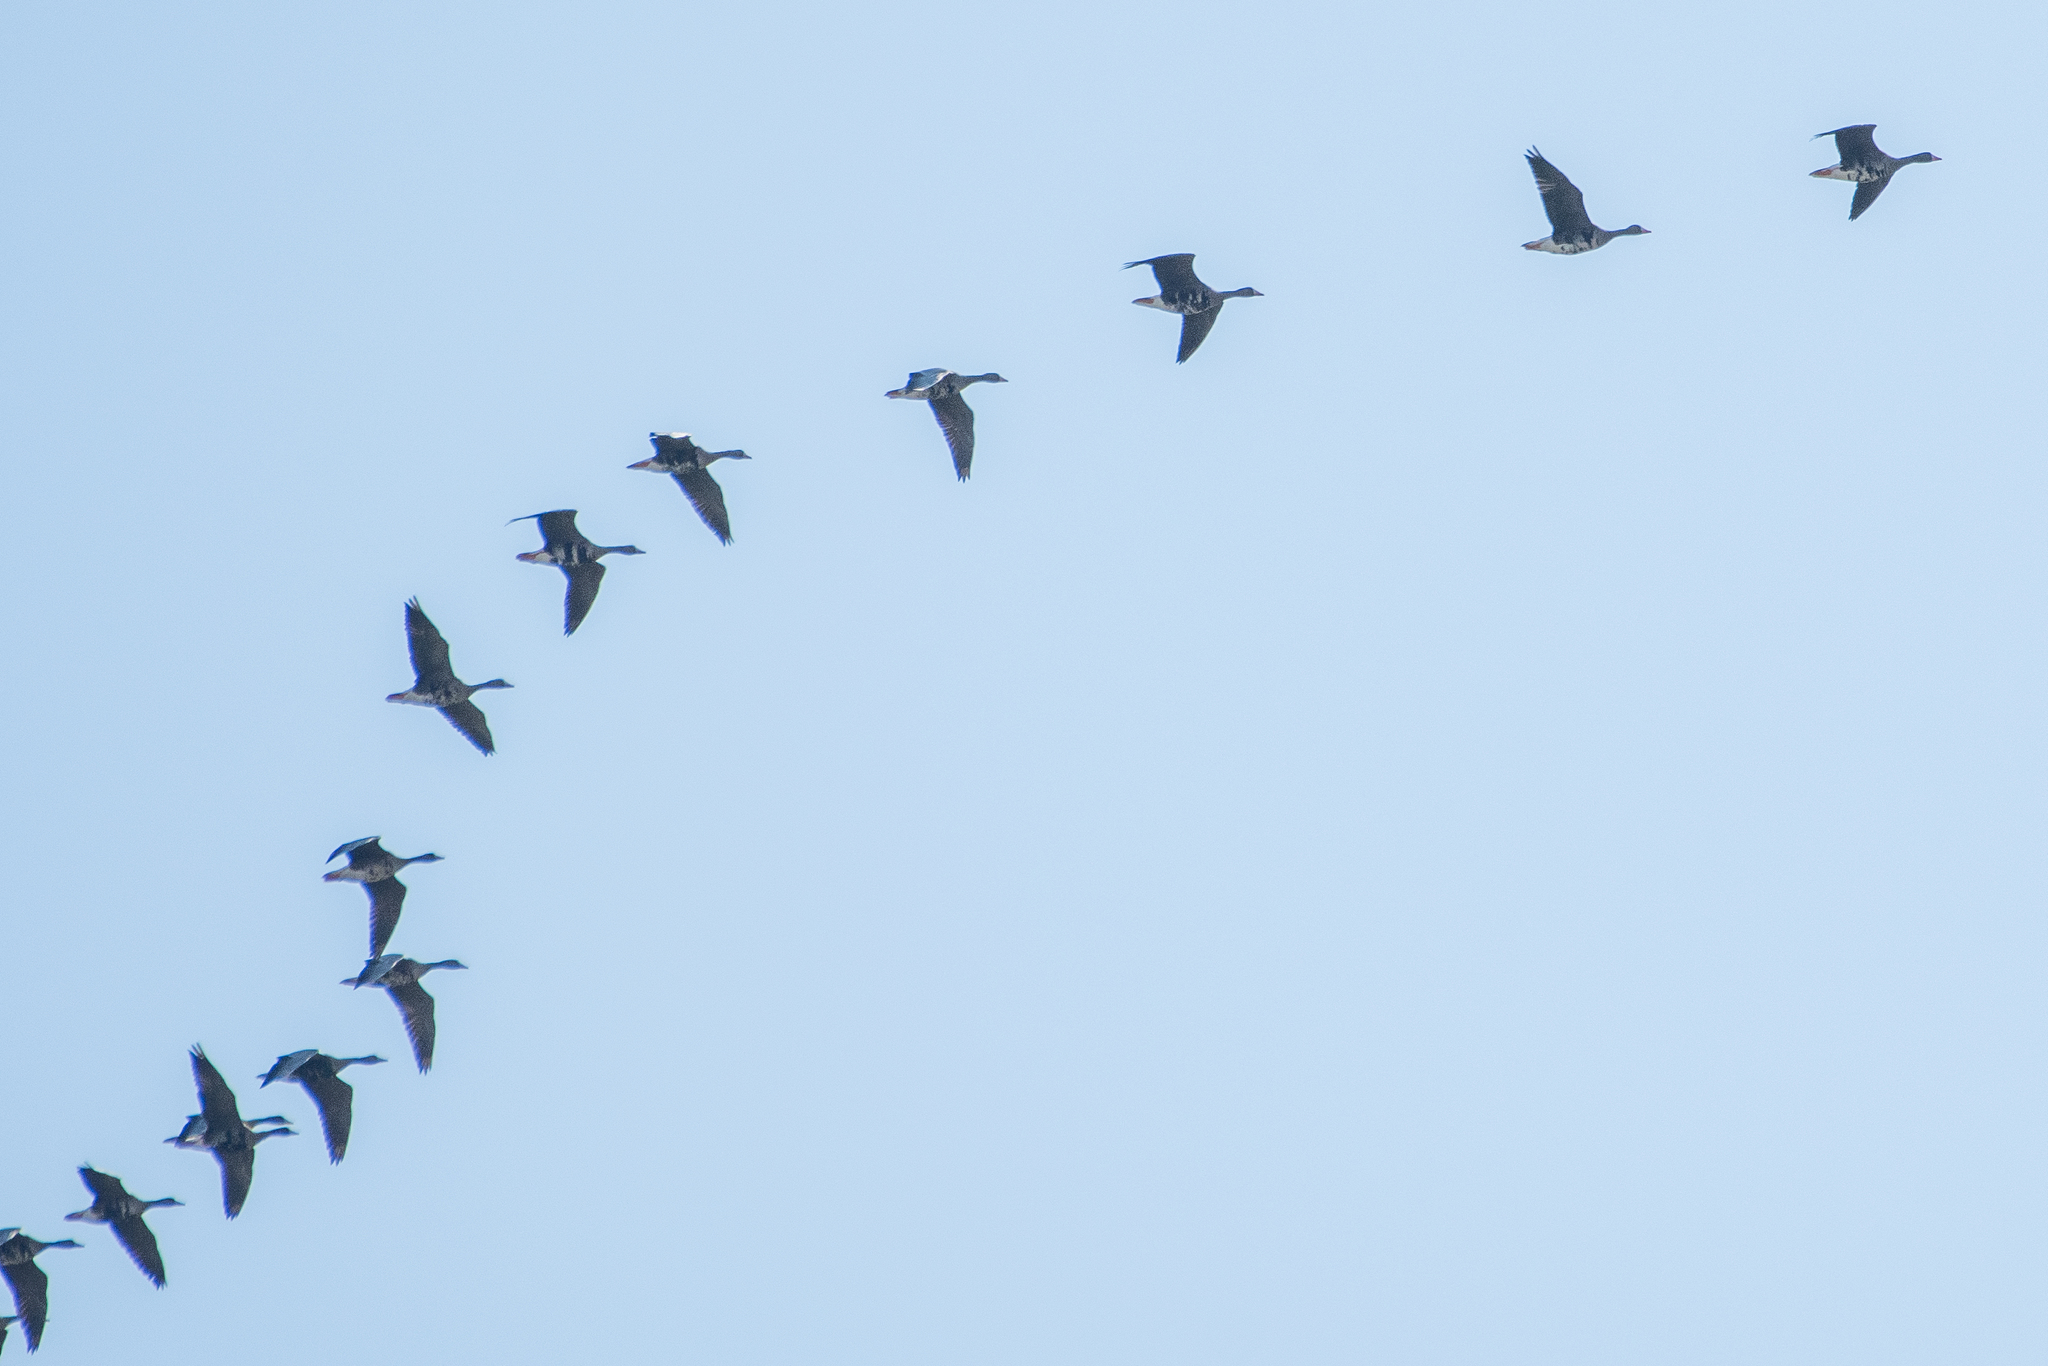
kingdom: Animalia
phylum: Chordata
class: Aves
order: Anseriformes
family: Anatidae
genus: Anser
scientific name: Anser albifrons
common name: Greater white-fronted goose
